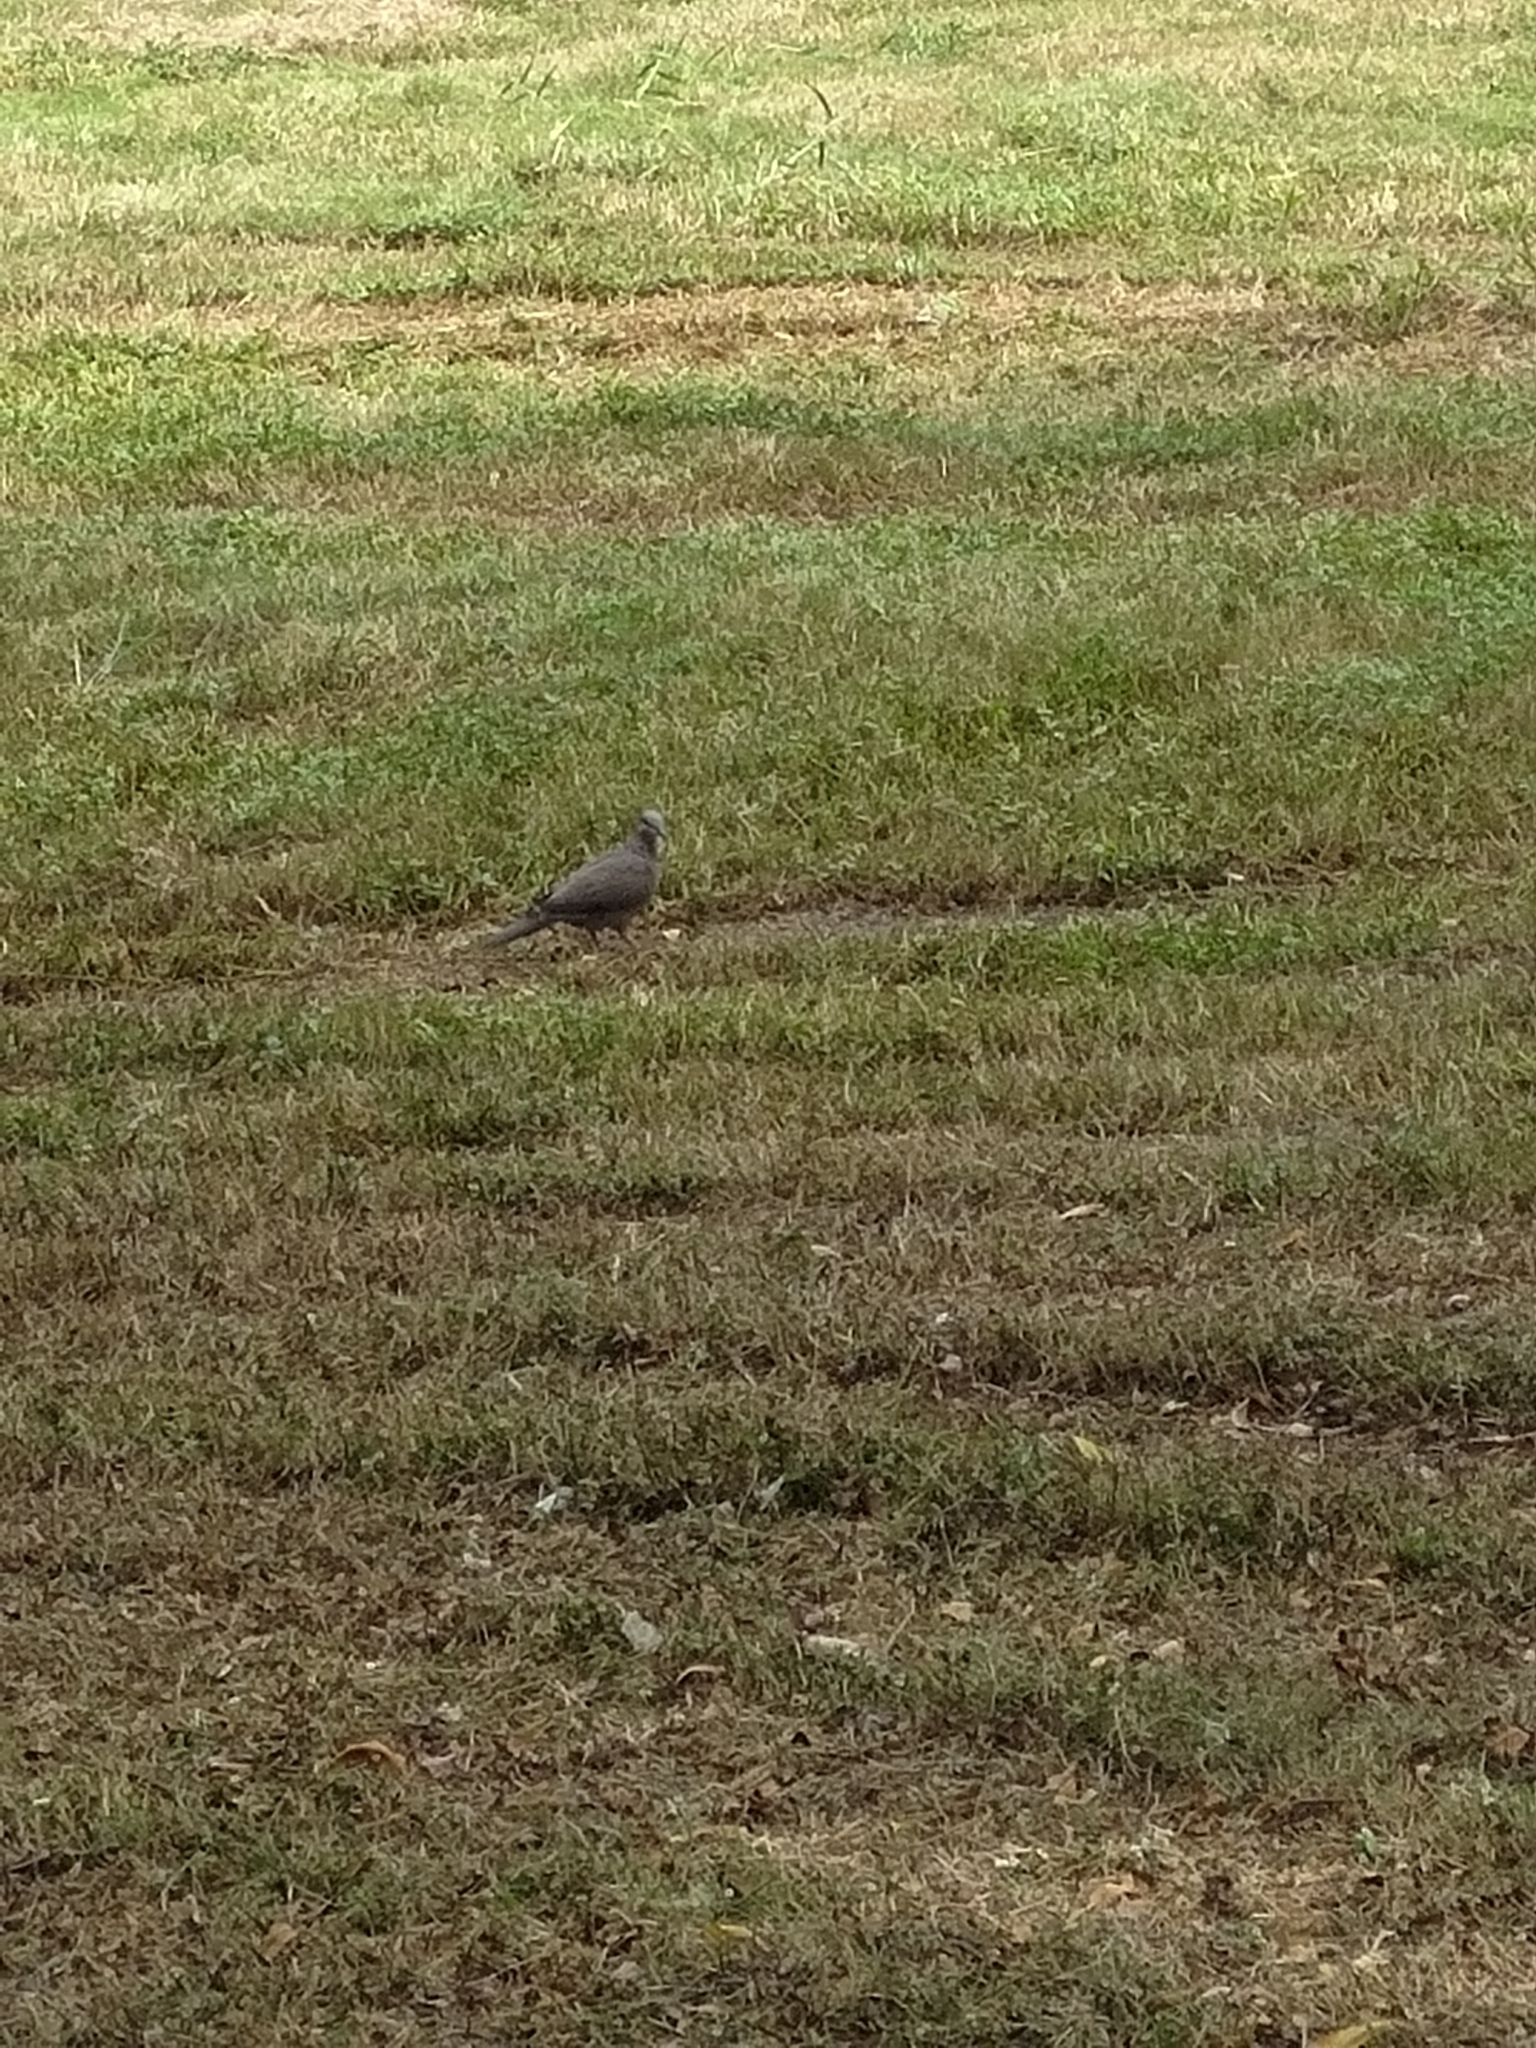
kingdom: Animalia
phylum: Chordata
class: Aves
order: Columbiformes
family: Columbidae
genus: Spilopelia
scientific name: Spilopelia chinensis
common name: Spotted dove
